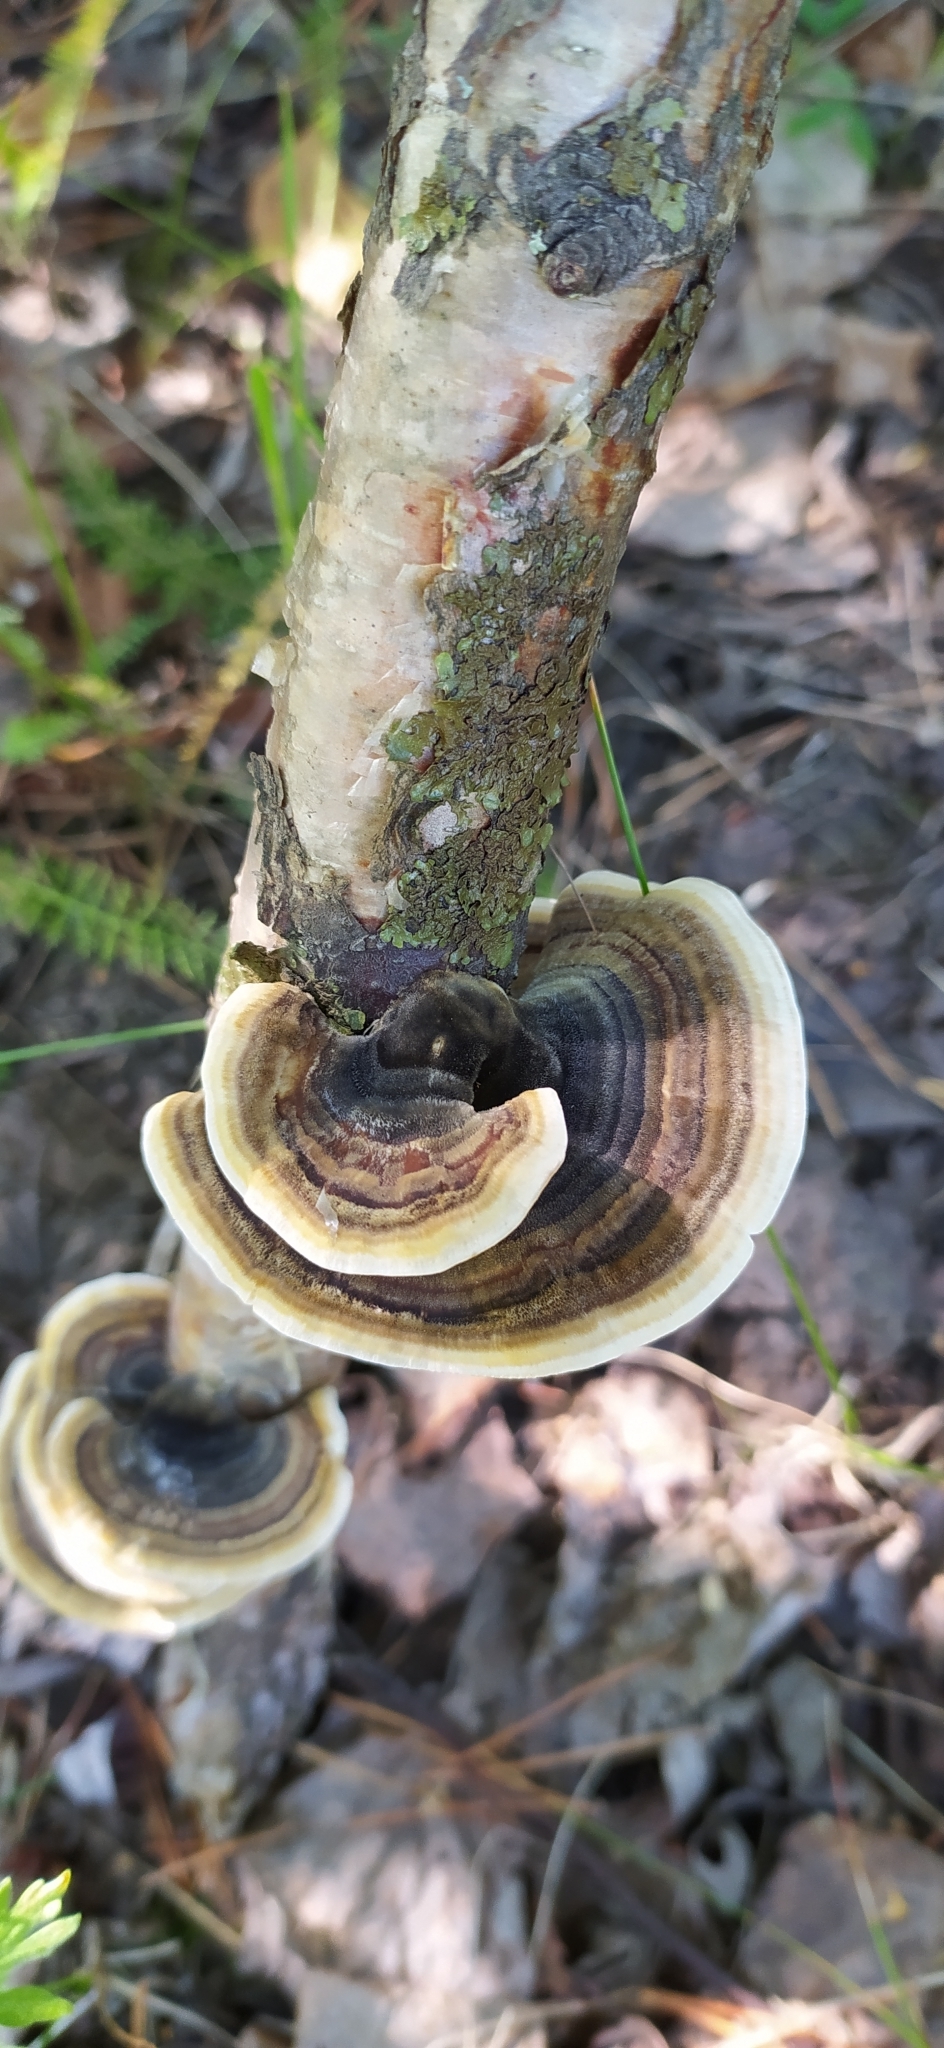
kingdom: Fungi
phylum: Basidiomycota
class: Agaricomycetes
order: Polyporales
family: Polyporaceae
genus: Trametes
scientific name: Trametes versicolor
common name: Turkeytail
